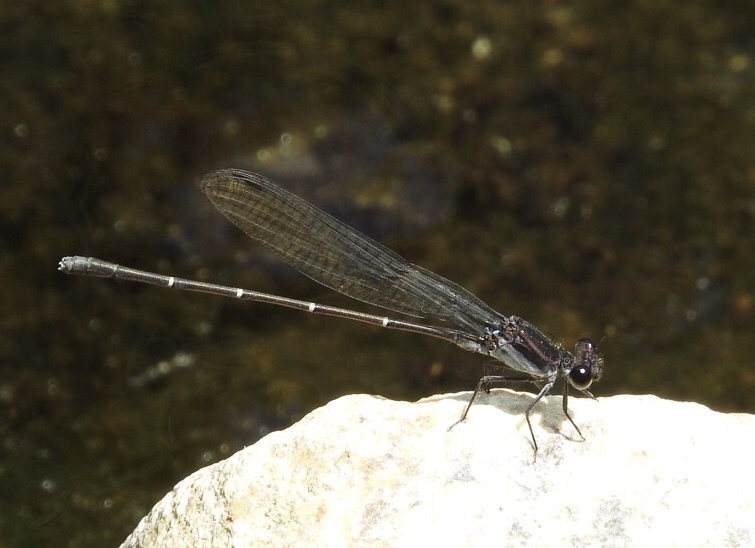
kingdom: Animalia
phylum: Arthropoda
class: Insecta
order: Odonata
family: Coenagrionidae
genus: Argia
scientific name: Argia tezpi
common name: Tezpi dancer
